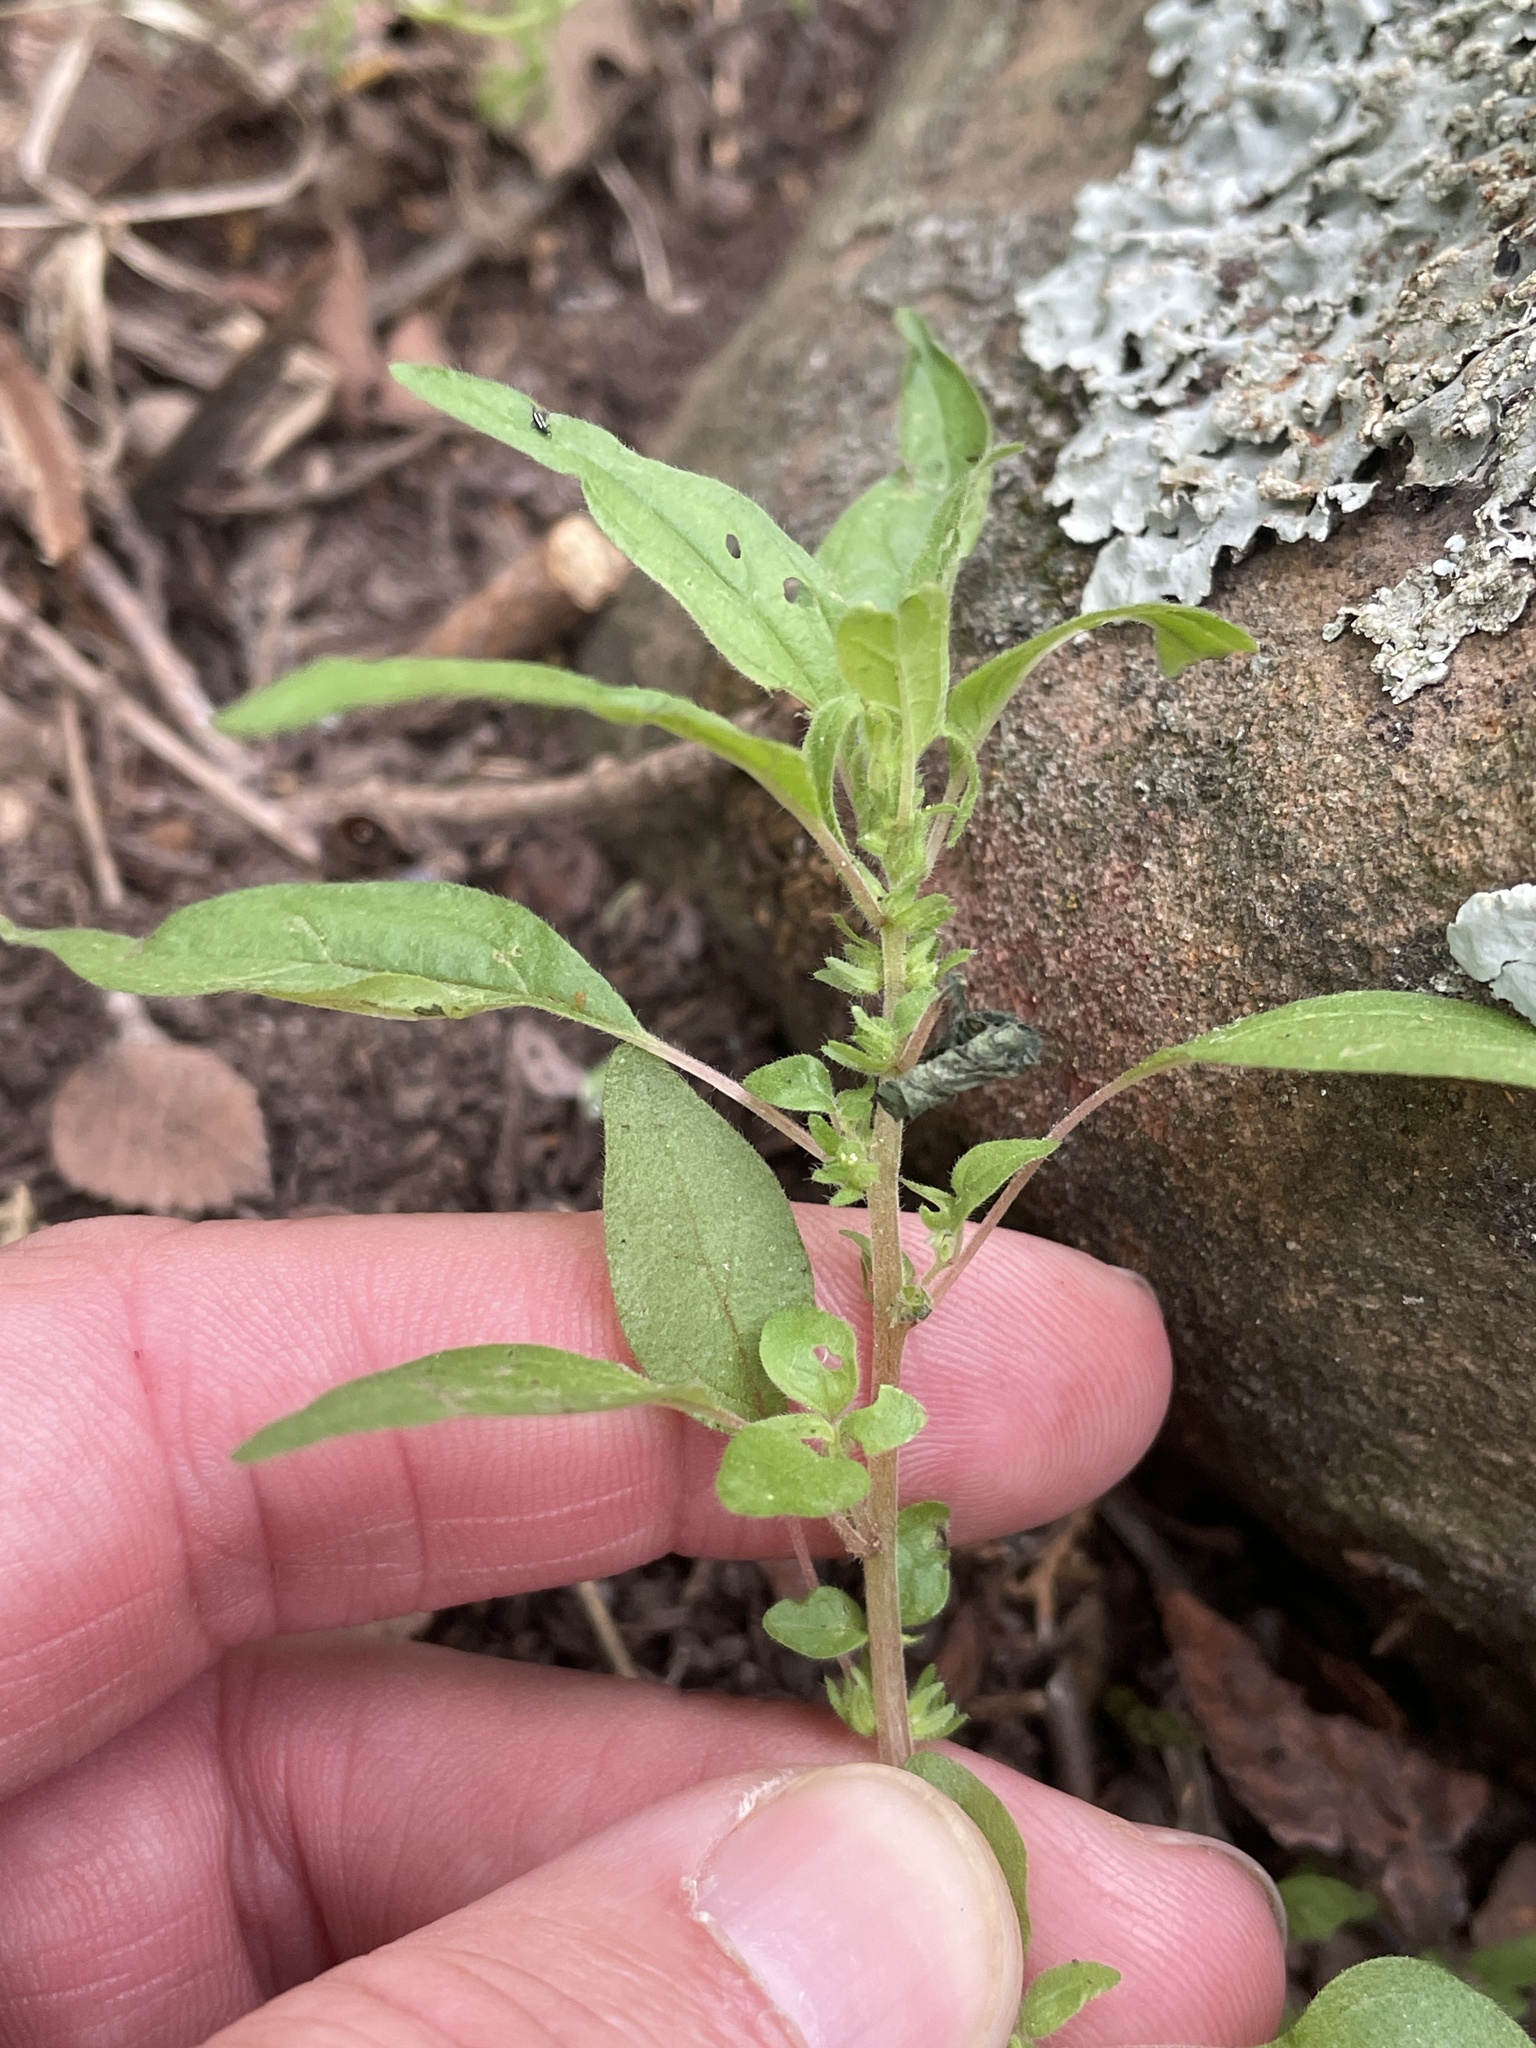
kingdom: Plantae
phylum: Tracheophyta
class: Magnoliopsida
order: Rosales
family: Urticaceae
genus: Parietaria
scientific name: Parietaria pensylvanica
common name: Pennsylvania pellitory
